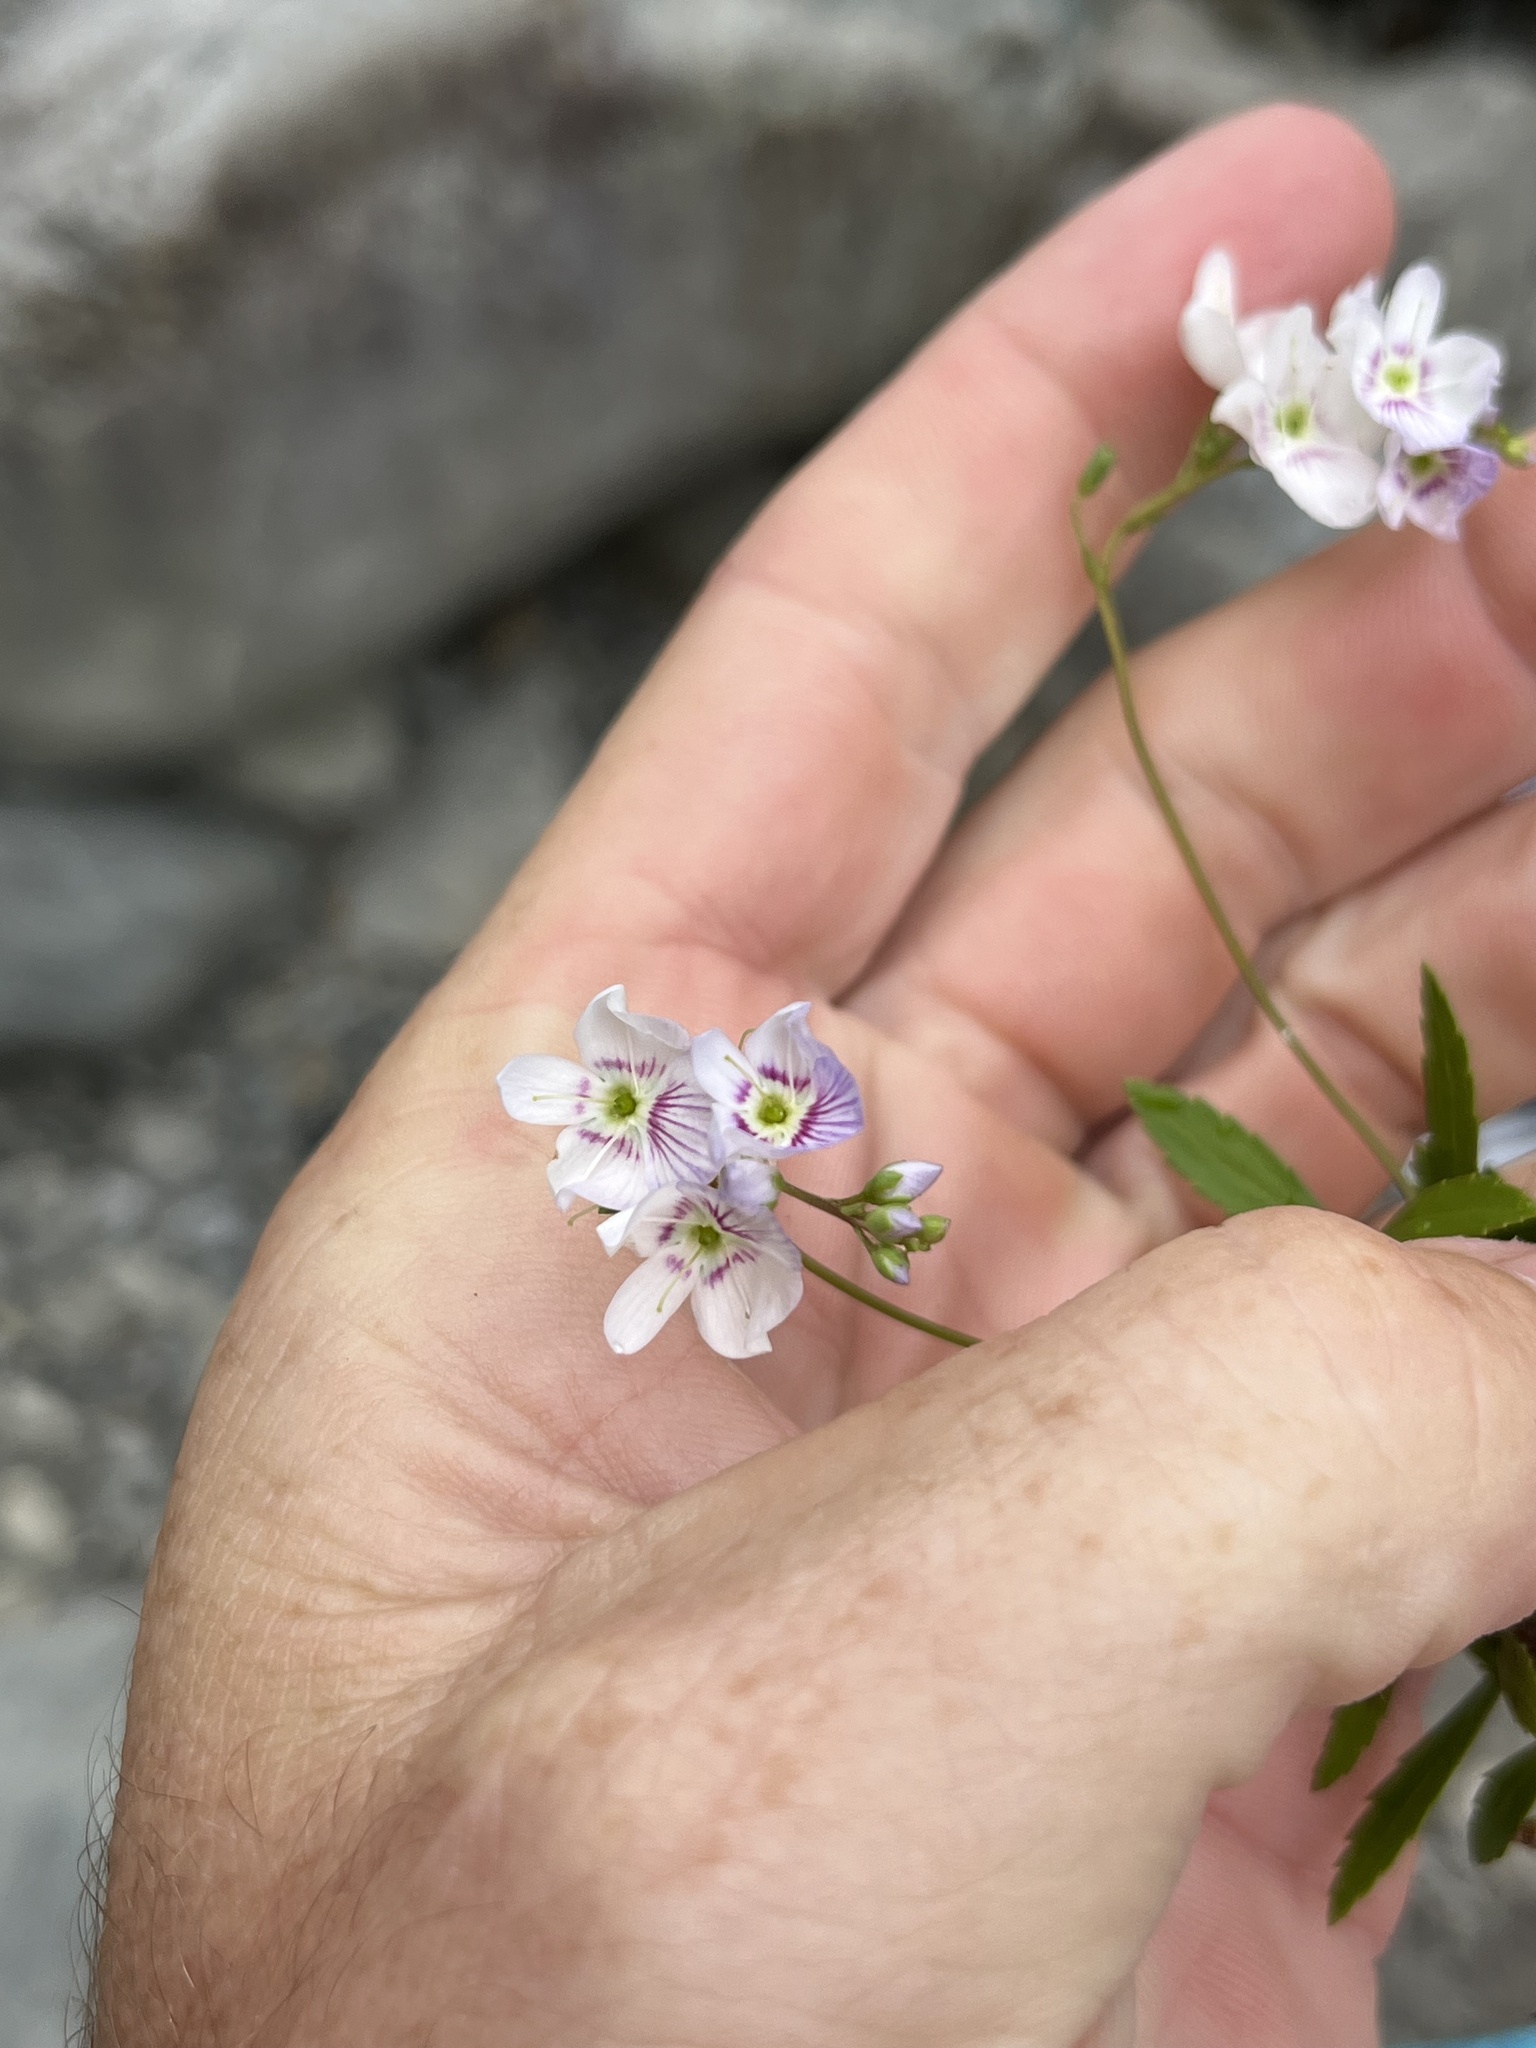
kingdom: Plantae
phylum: Tracheophyta
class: Magnoliopsida
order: Lamiales
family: Plantaginaceae
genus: Veronica
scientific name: Veronica lanceolata
